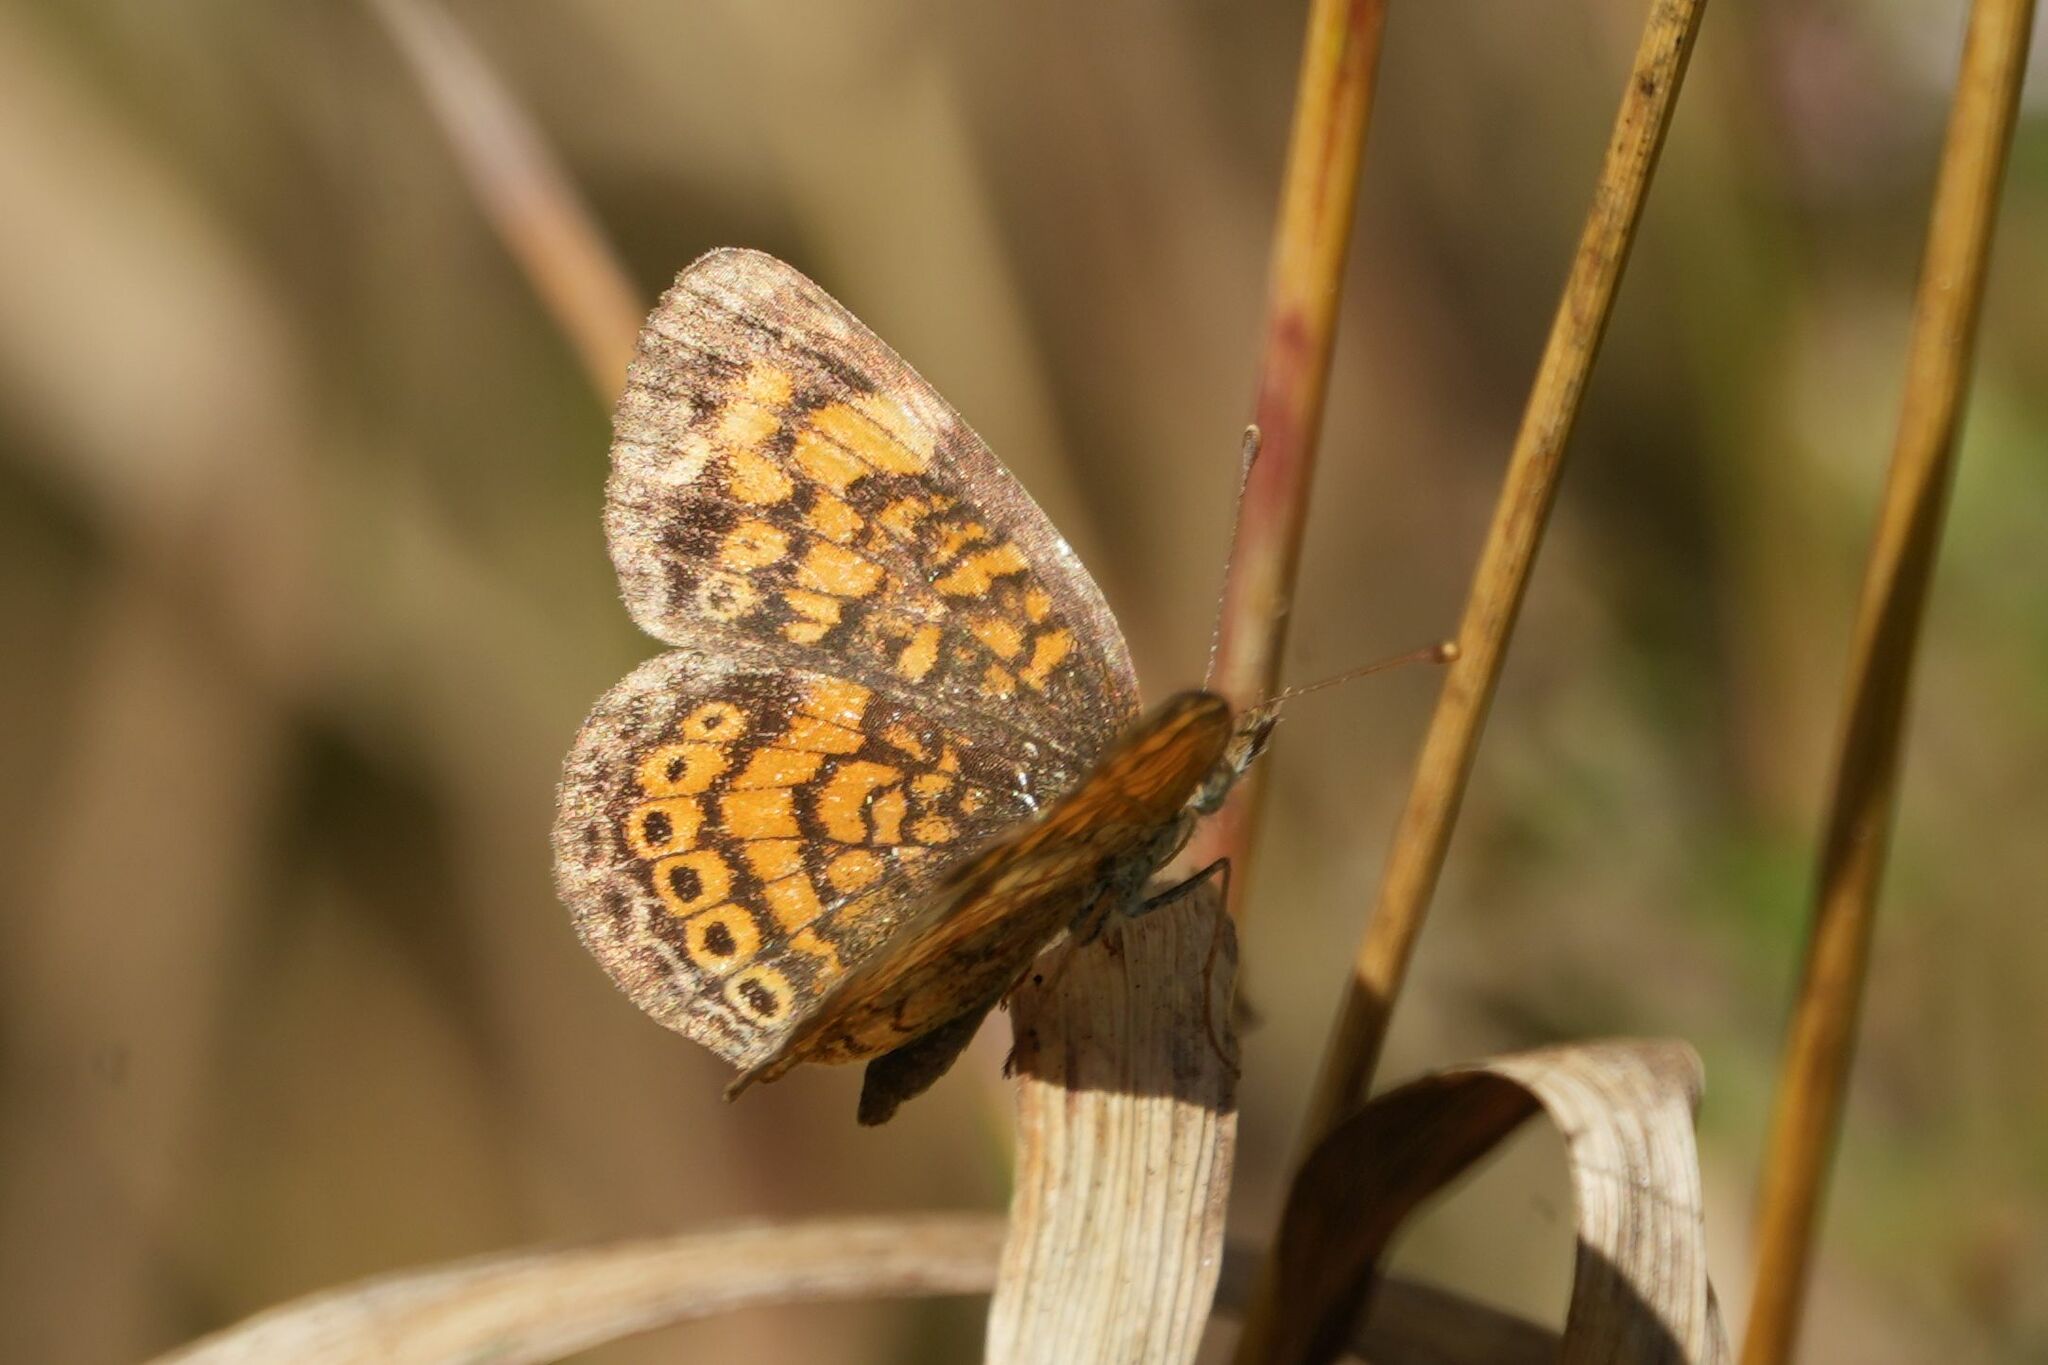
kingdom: Animalia
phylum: Arthropoda
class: Insecta
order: Lepidoptera
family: Nymphalidae
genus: Phyciodes
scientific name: Phyciodes tharos
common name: Pearl crescent
